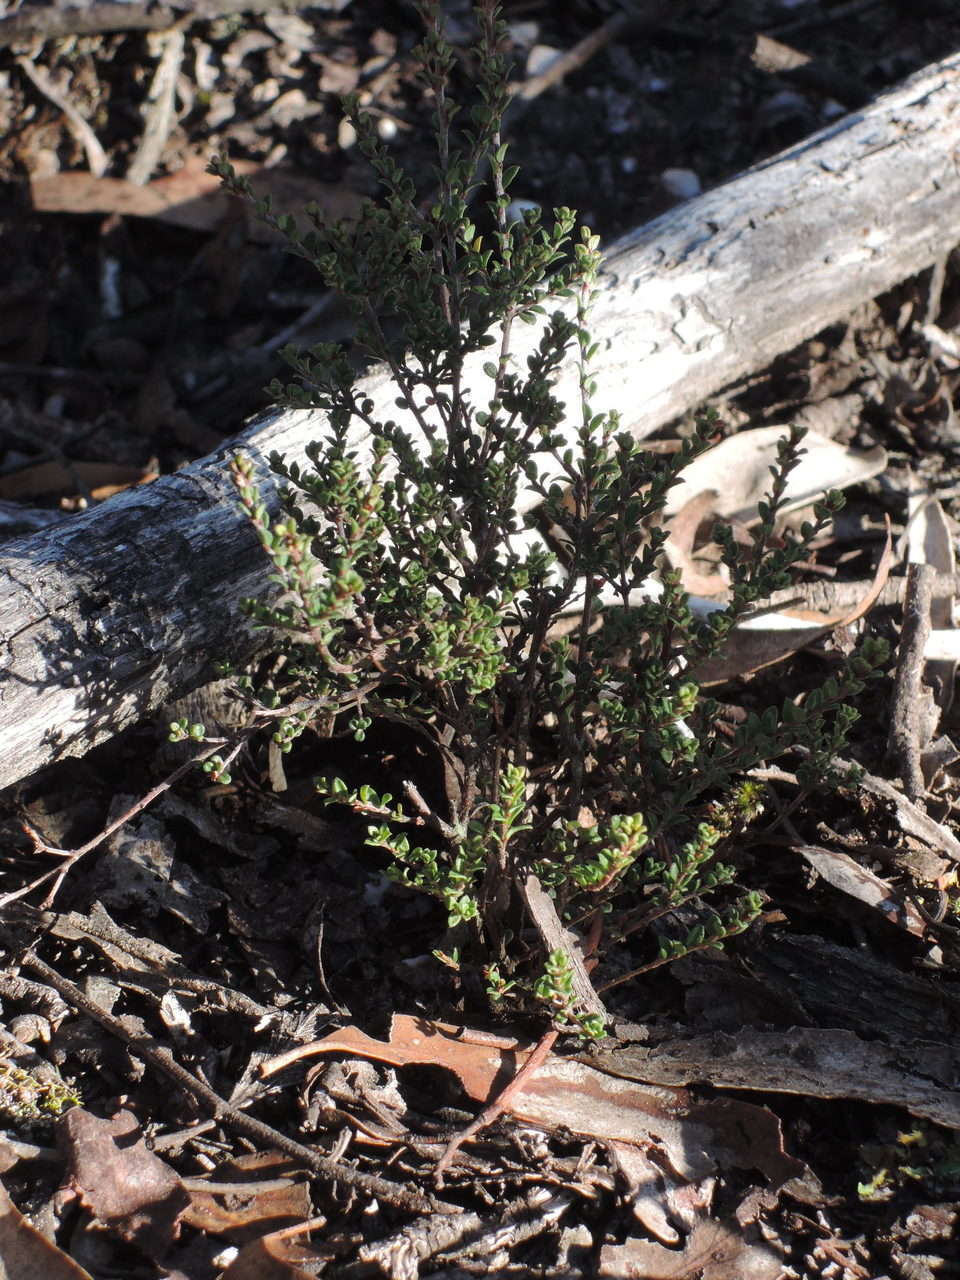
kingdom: Plantae
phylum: Tracheophyta
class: Magnoliopsida
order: Fabales
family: Fabaceae
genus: Pultenaea
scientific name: Pultenaea gunnii
